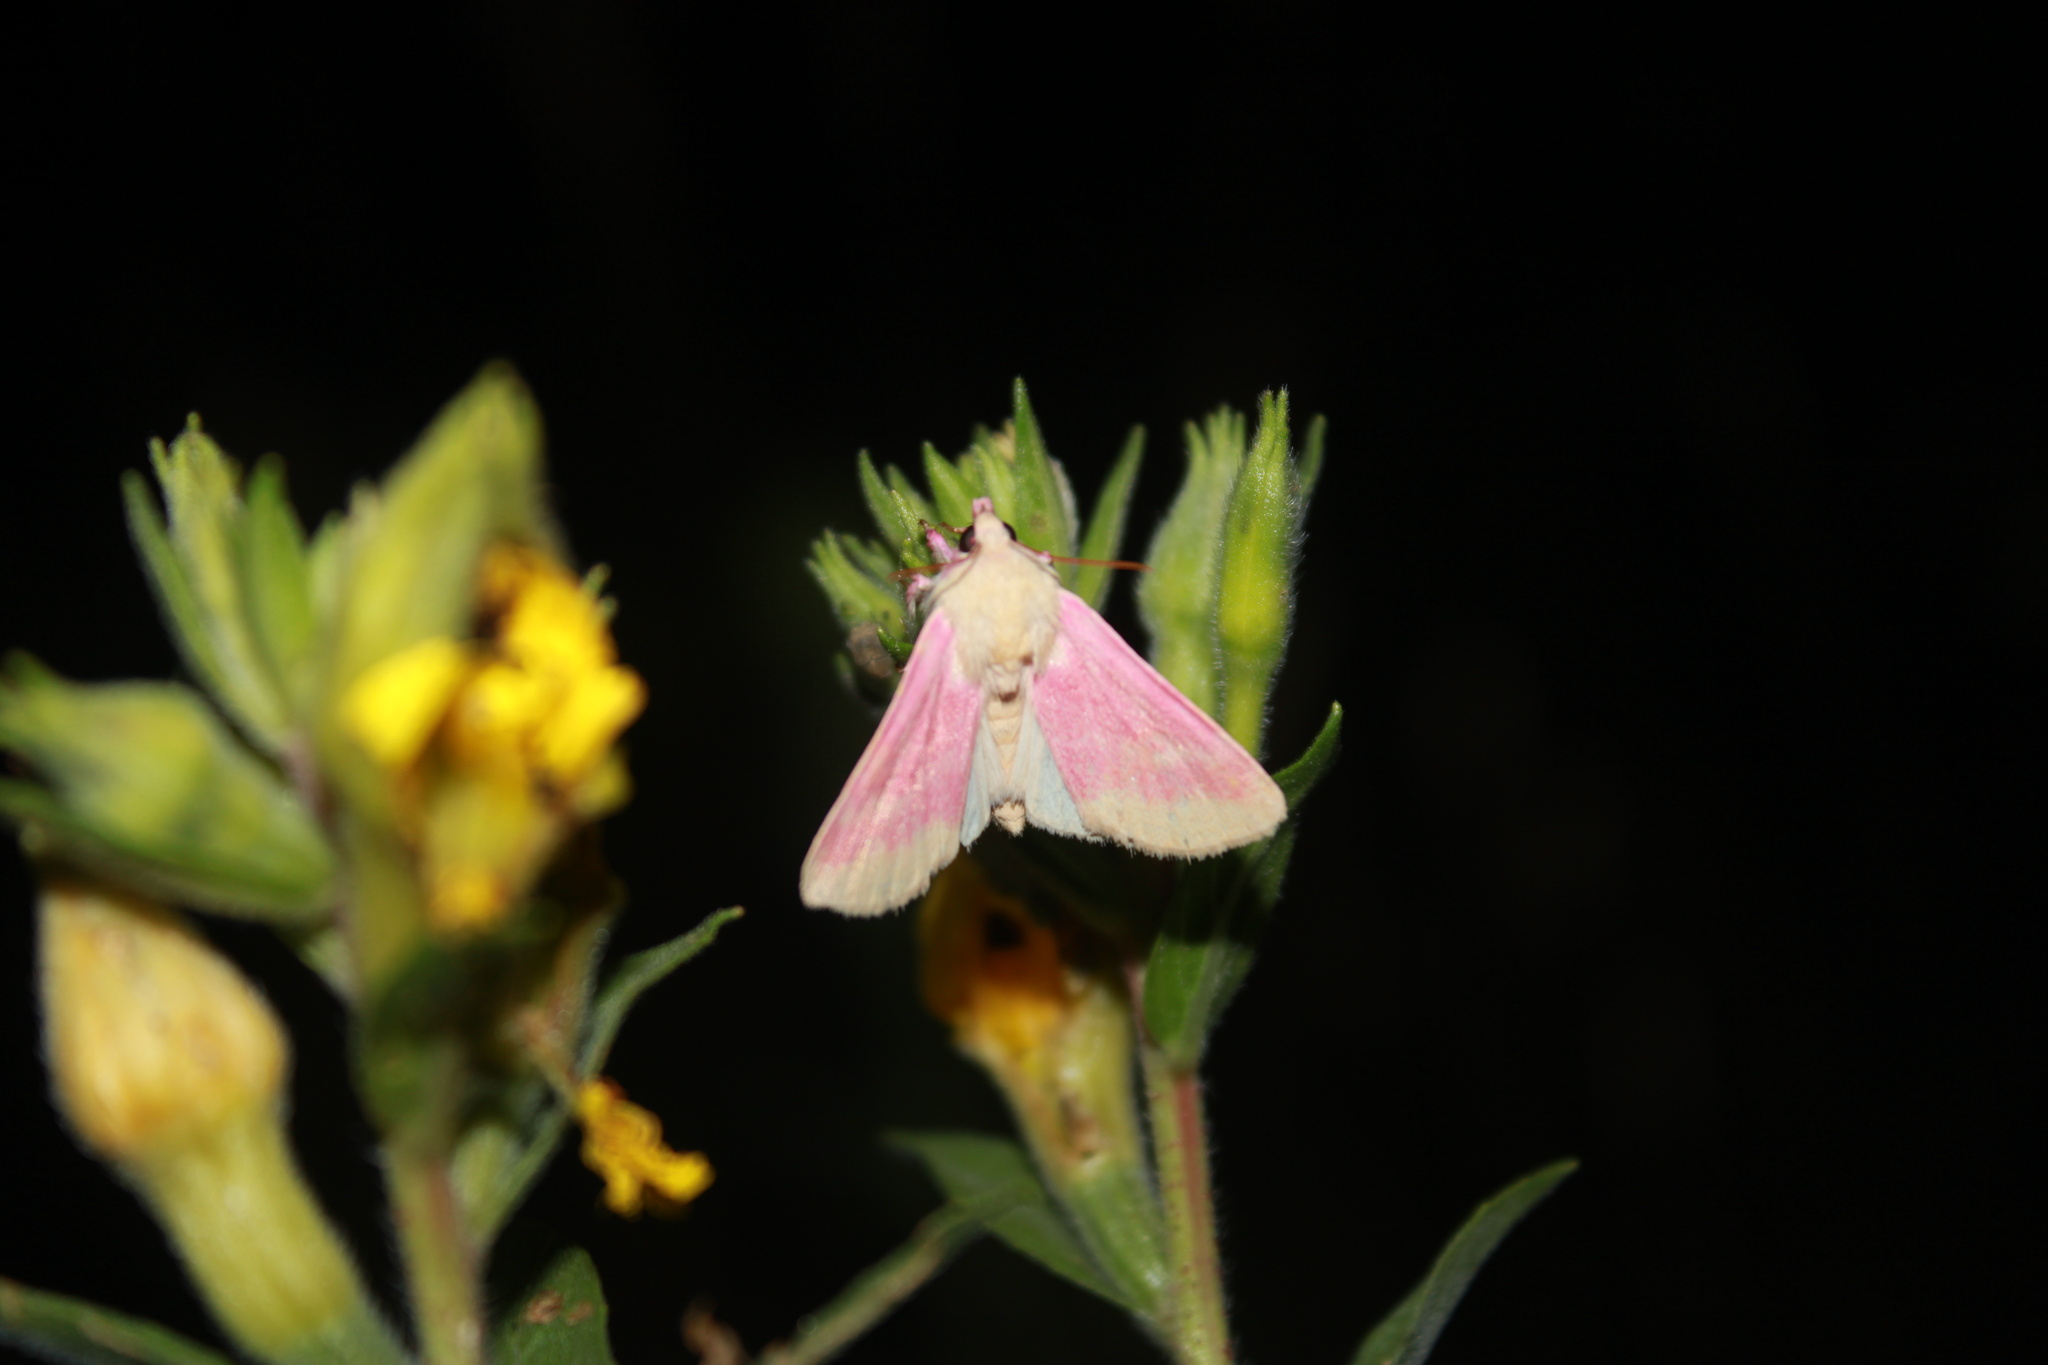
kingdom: Animalia
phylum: Arthropoda
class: Insecta
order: Lepidoptera
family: Noctuidae
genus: Schinia
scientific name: Schinia florida
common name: Primrose moth
